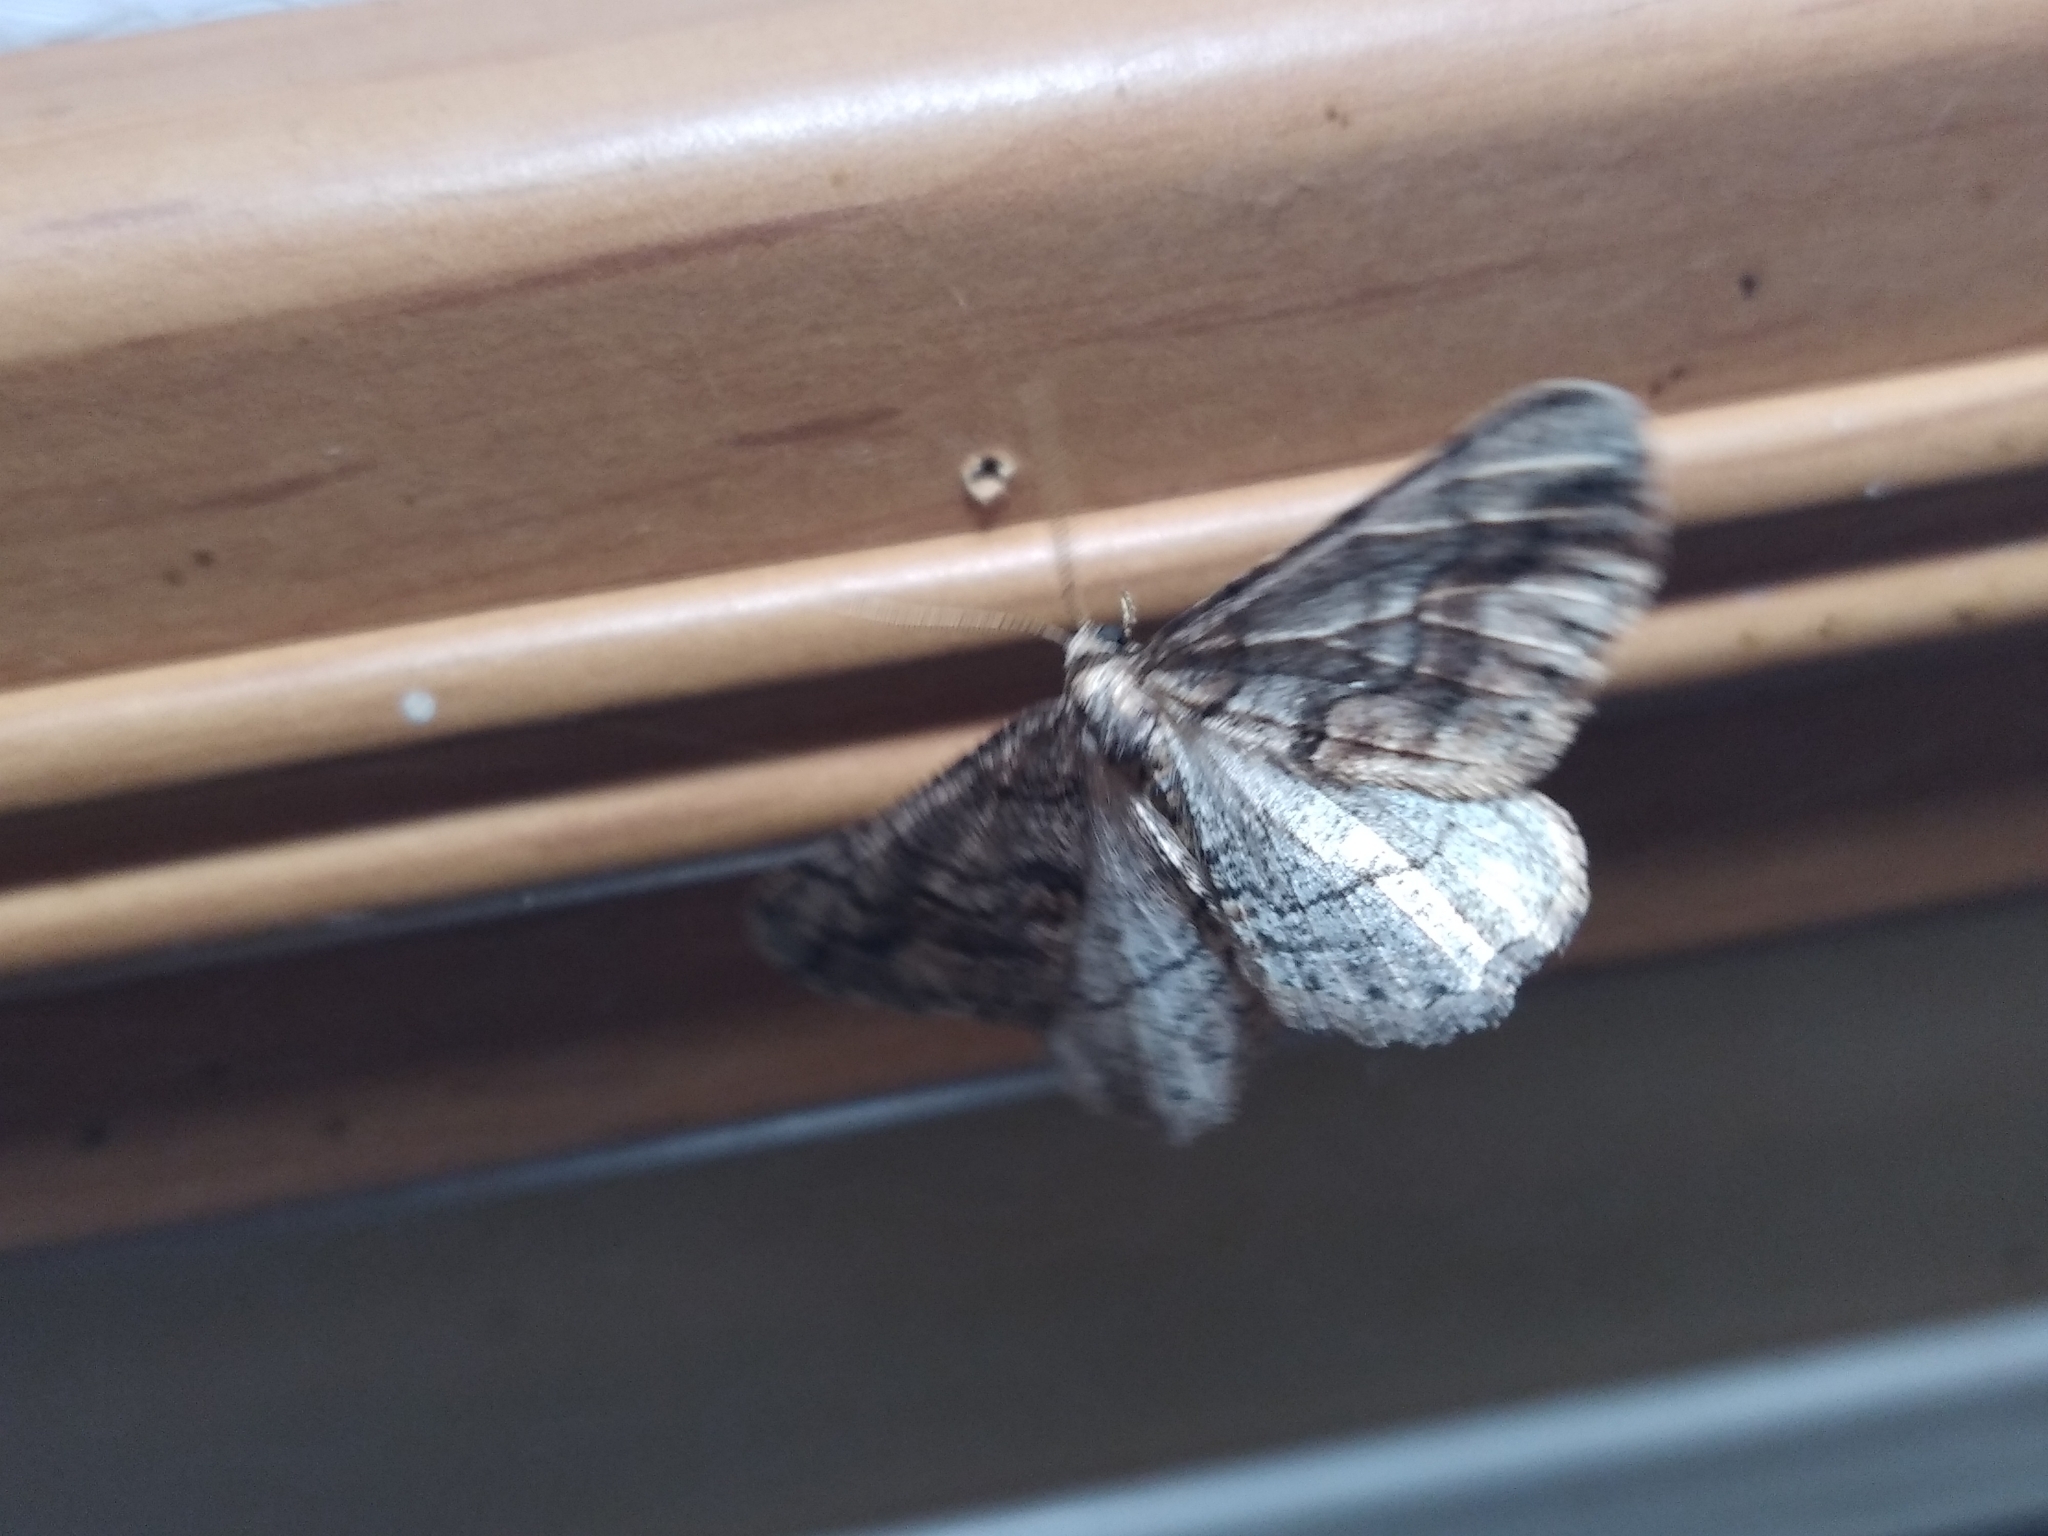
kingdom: Animalia
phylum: Arthropoda
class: Insecta
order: Lepidoptera
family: Geometridae
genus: Agriopis
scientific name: Agriopis bajaria
